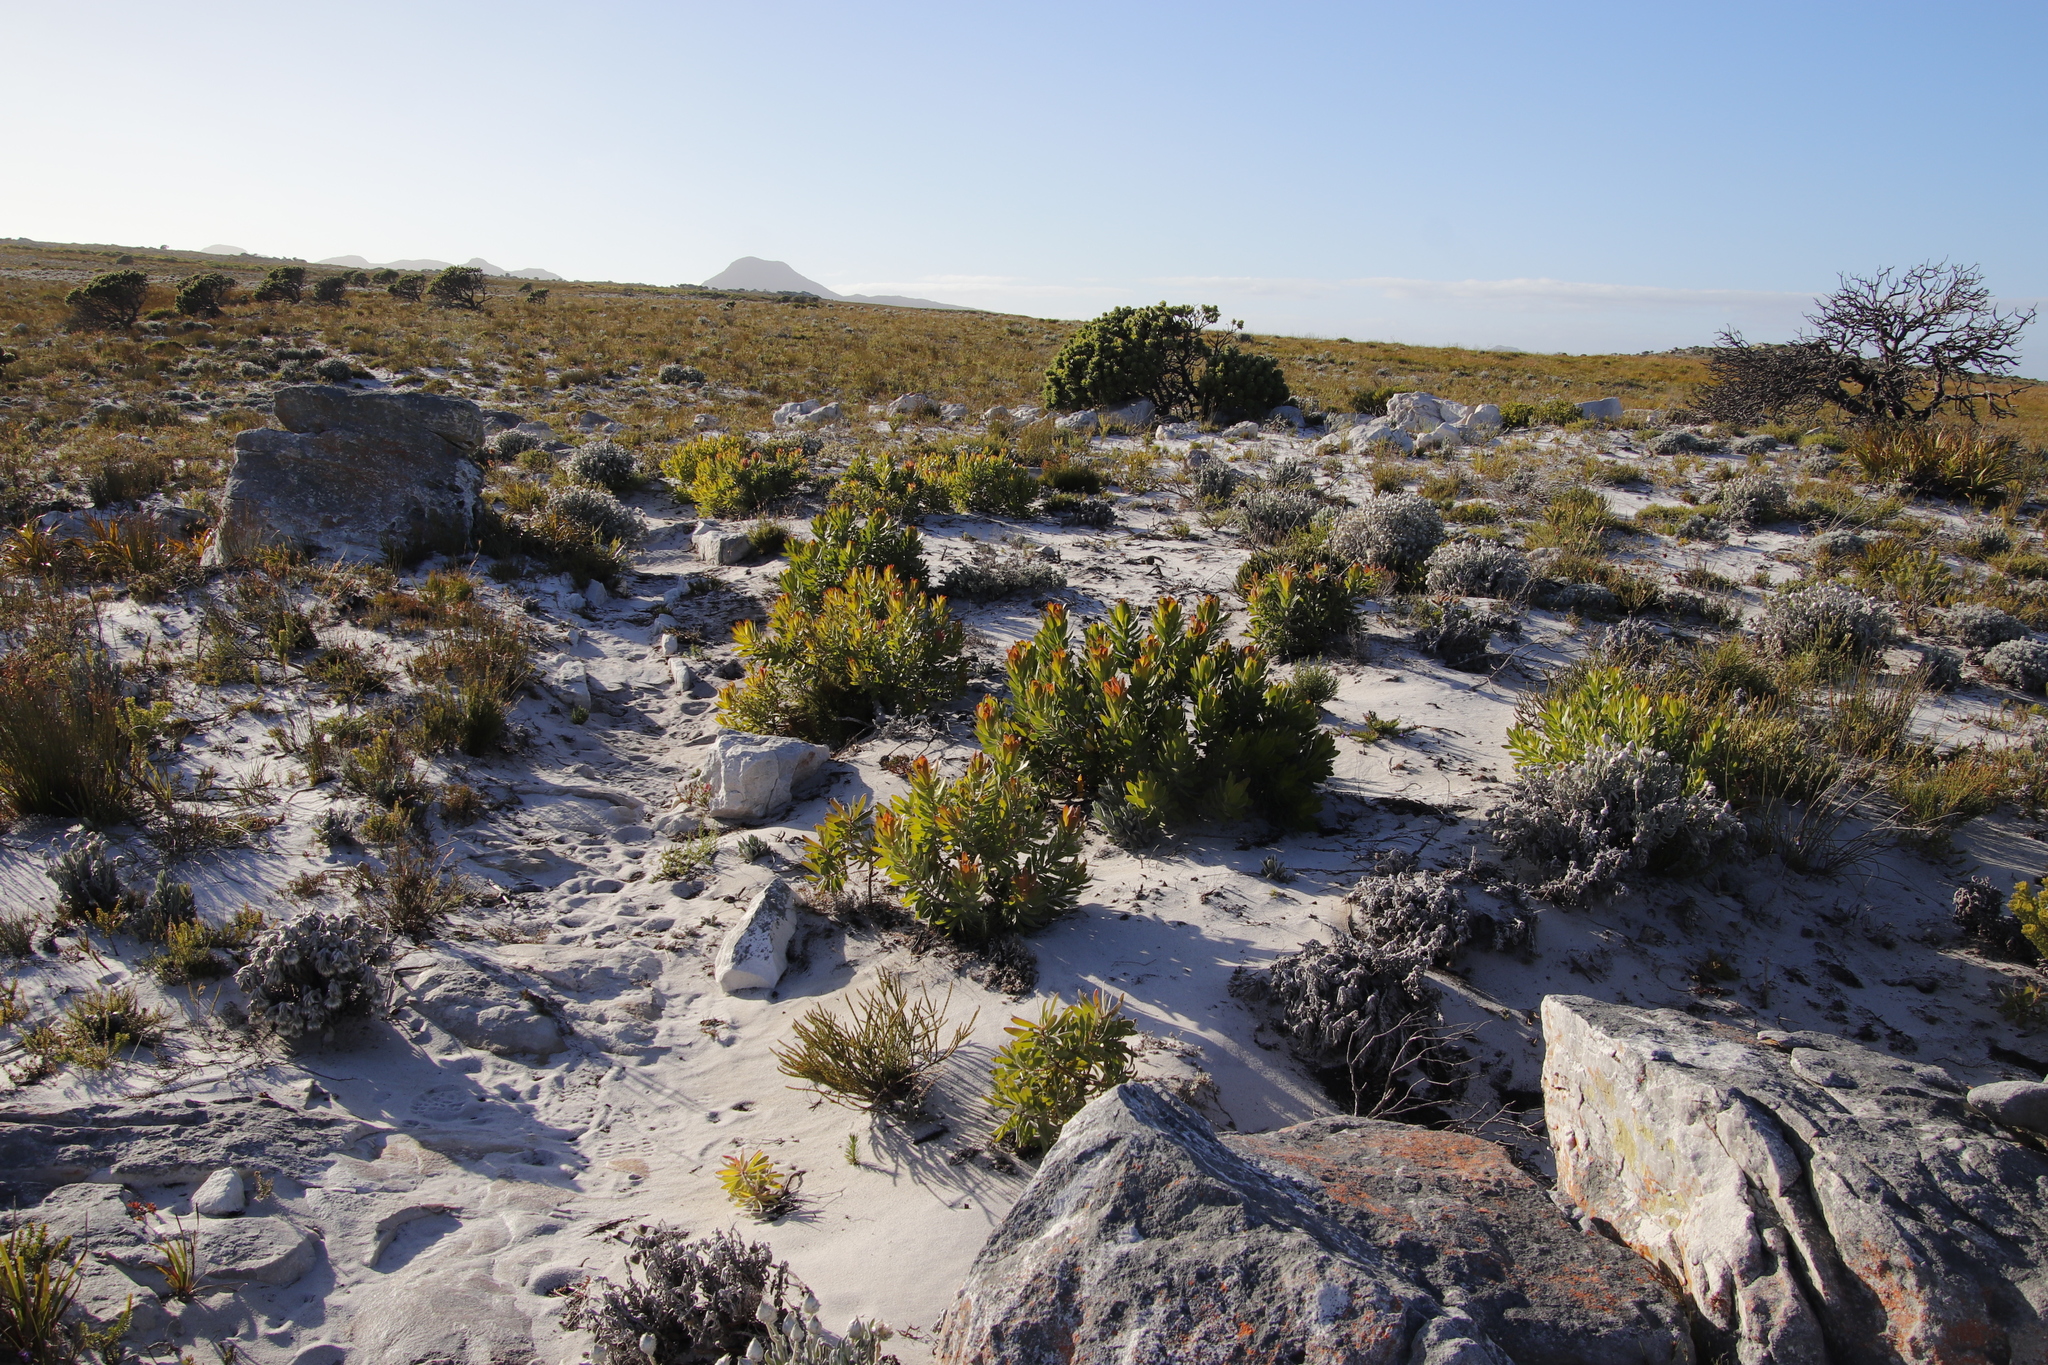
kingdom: Plantae
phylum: Tracheophyta
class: Magnoliopsida
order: Proteales
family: Proteaceae
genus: Leucadendron
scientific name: Leucadendron laureolum
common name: Golden sunshinebush
